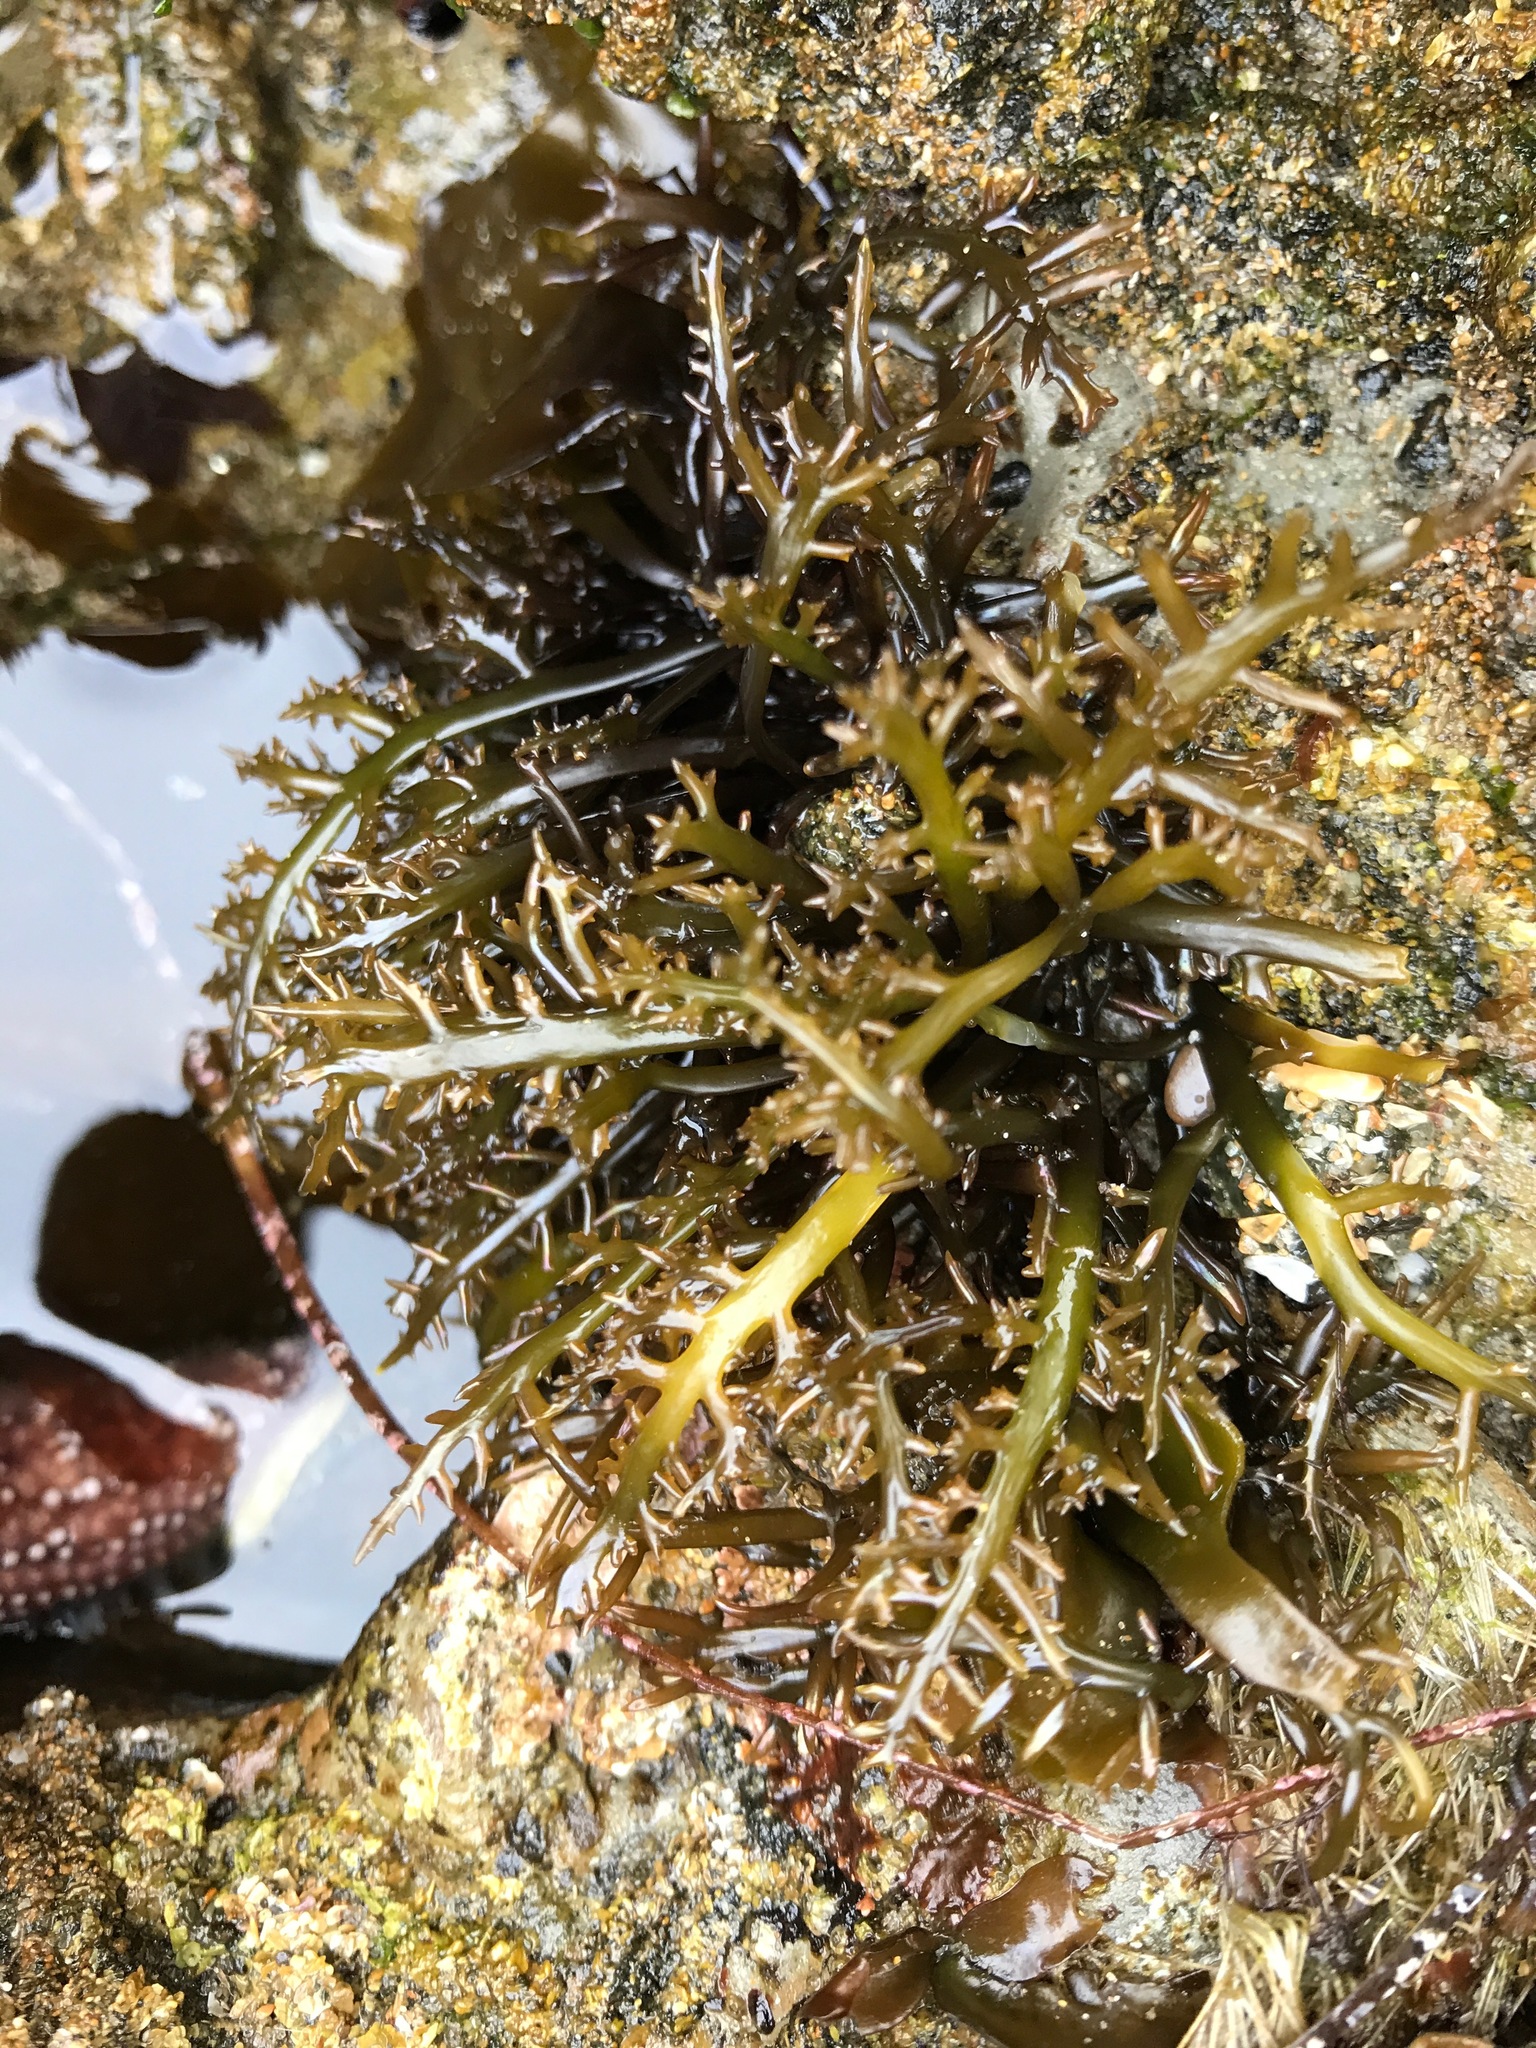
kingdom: Plantae
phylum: Rhodophyta
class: Florideophyceae
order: Gigartinales
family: Gigartinaceae
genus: Chondracanthus
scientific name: Chondracanthus canaliculatus
